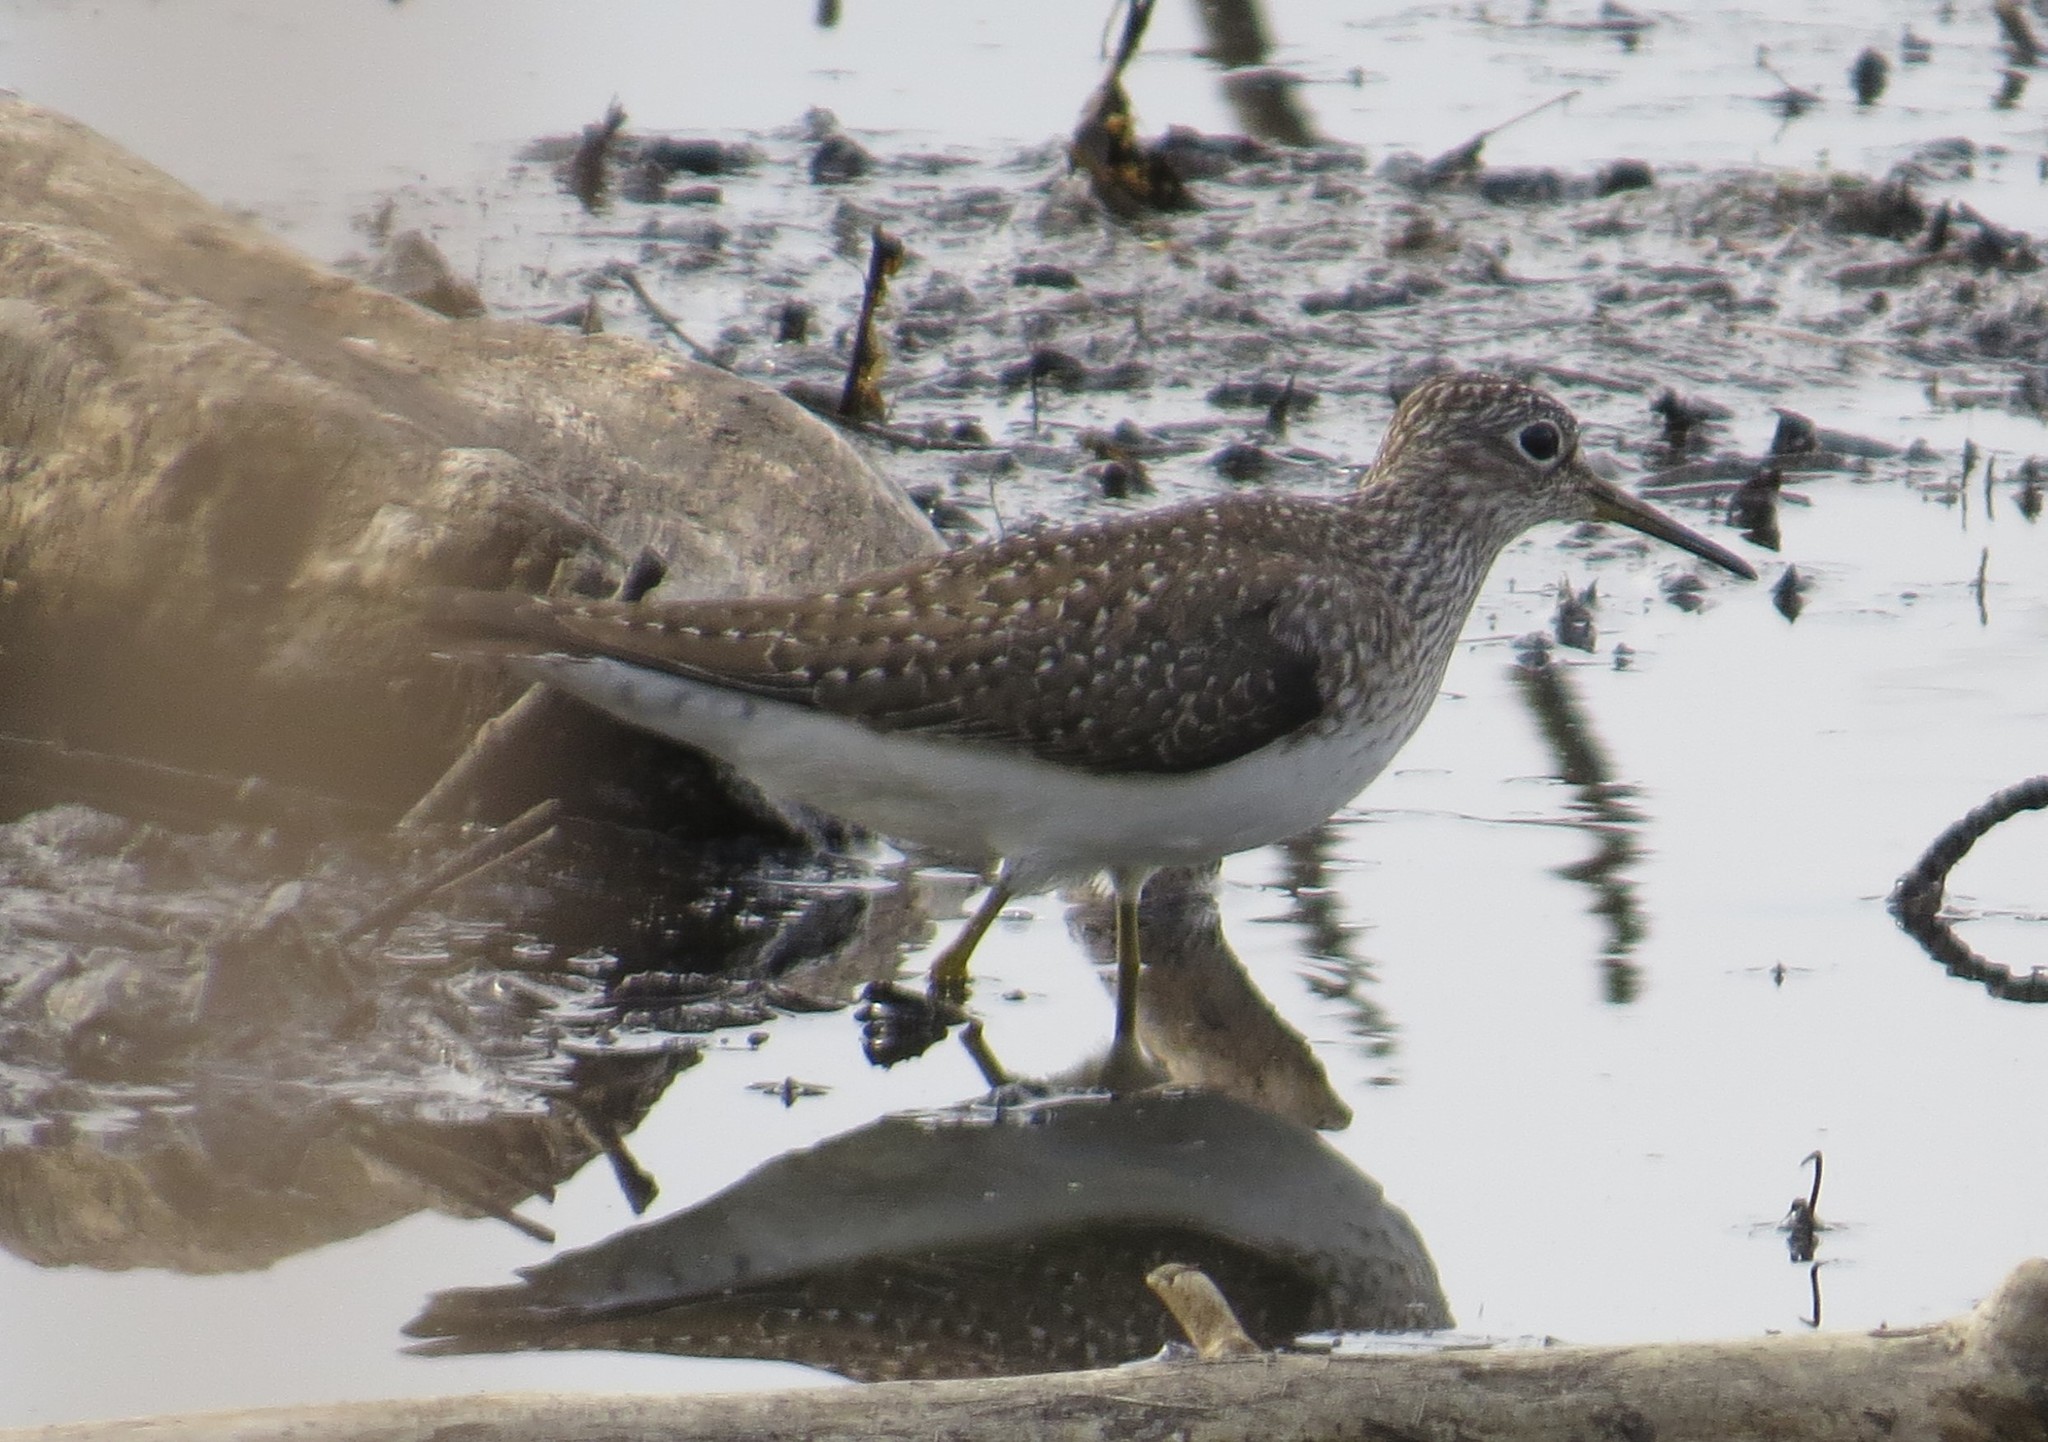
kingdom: Animalia
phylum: Chordata
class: Aves
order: Charadriiformes
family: Scolopacidae
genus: Tringa
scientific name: Tringa solitaria
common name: Solitary sandpiper
